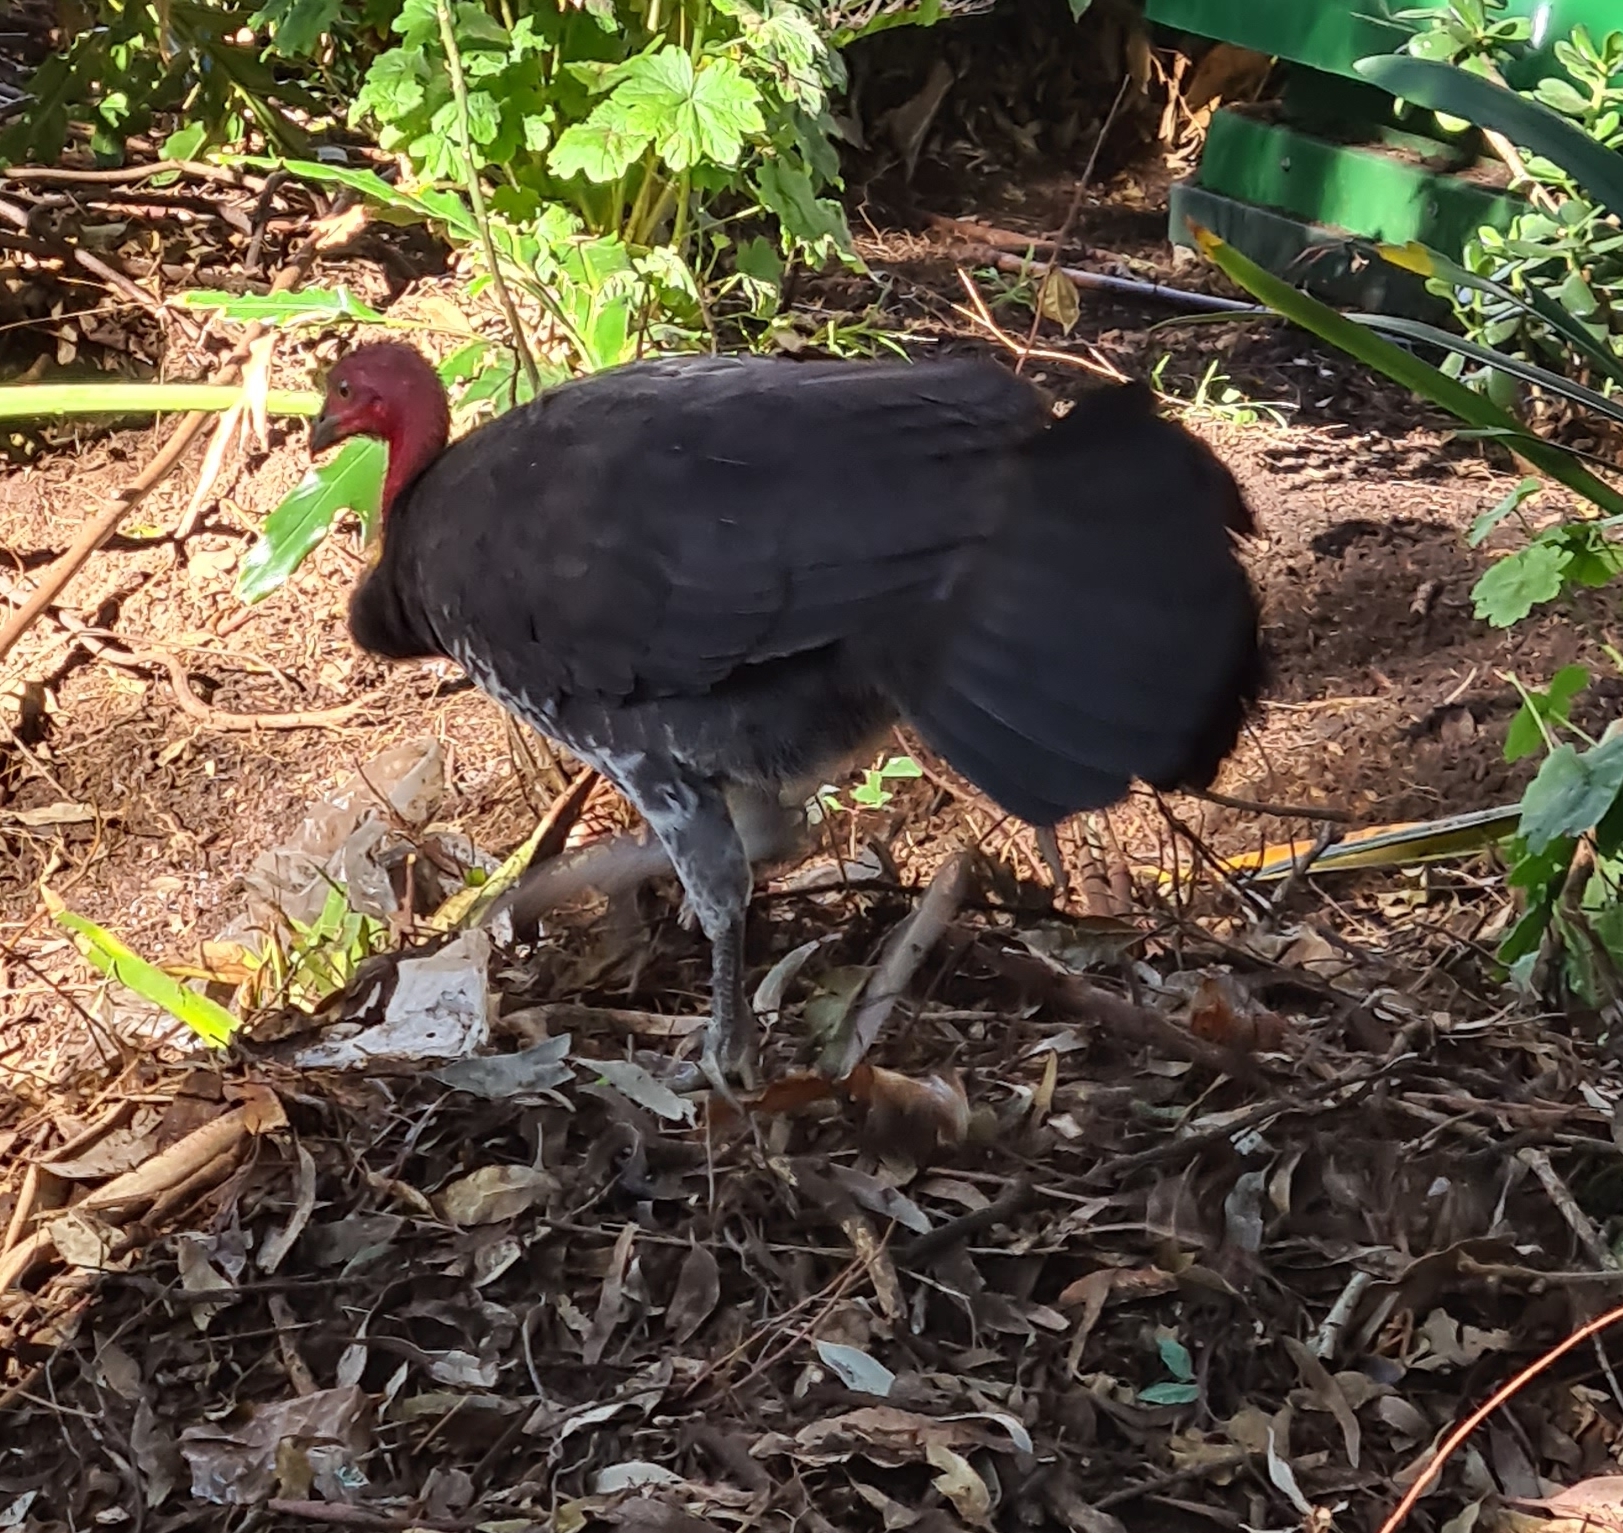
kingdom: Animalia
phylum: Chordata
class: Aves
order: Galliformes
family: Megapodiidae
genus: Alectura
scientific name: Alectura lathami
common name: Australian brushturkey
